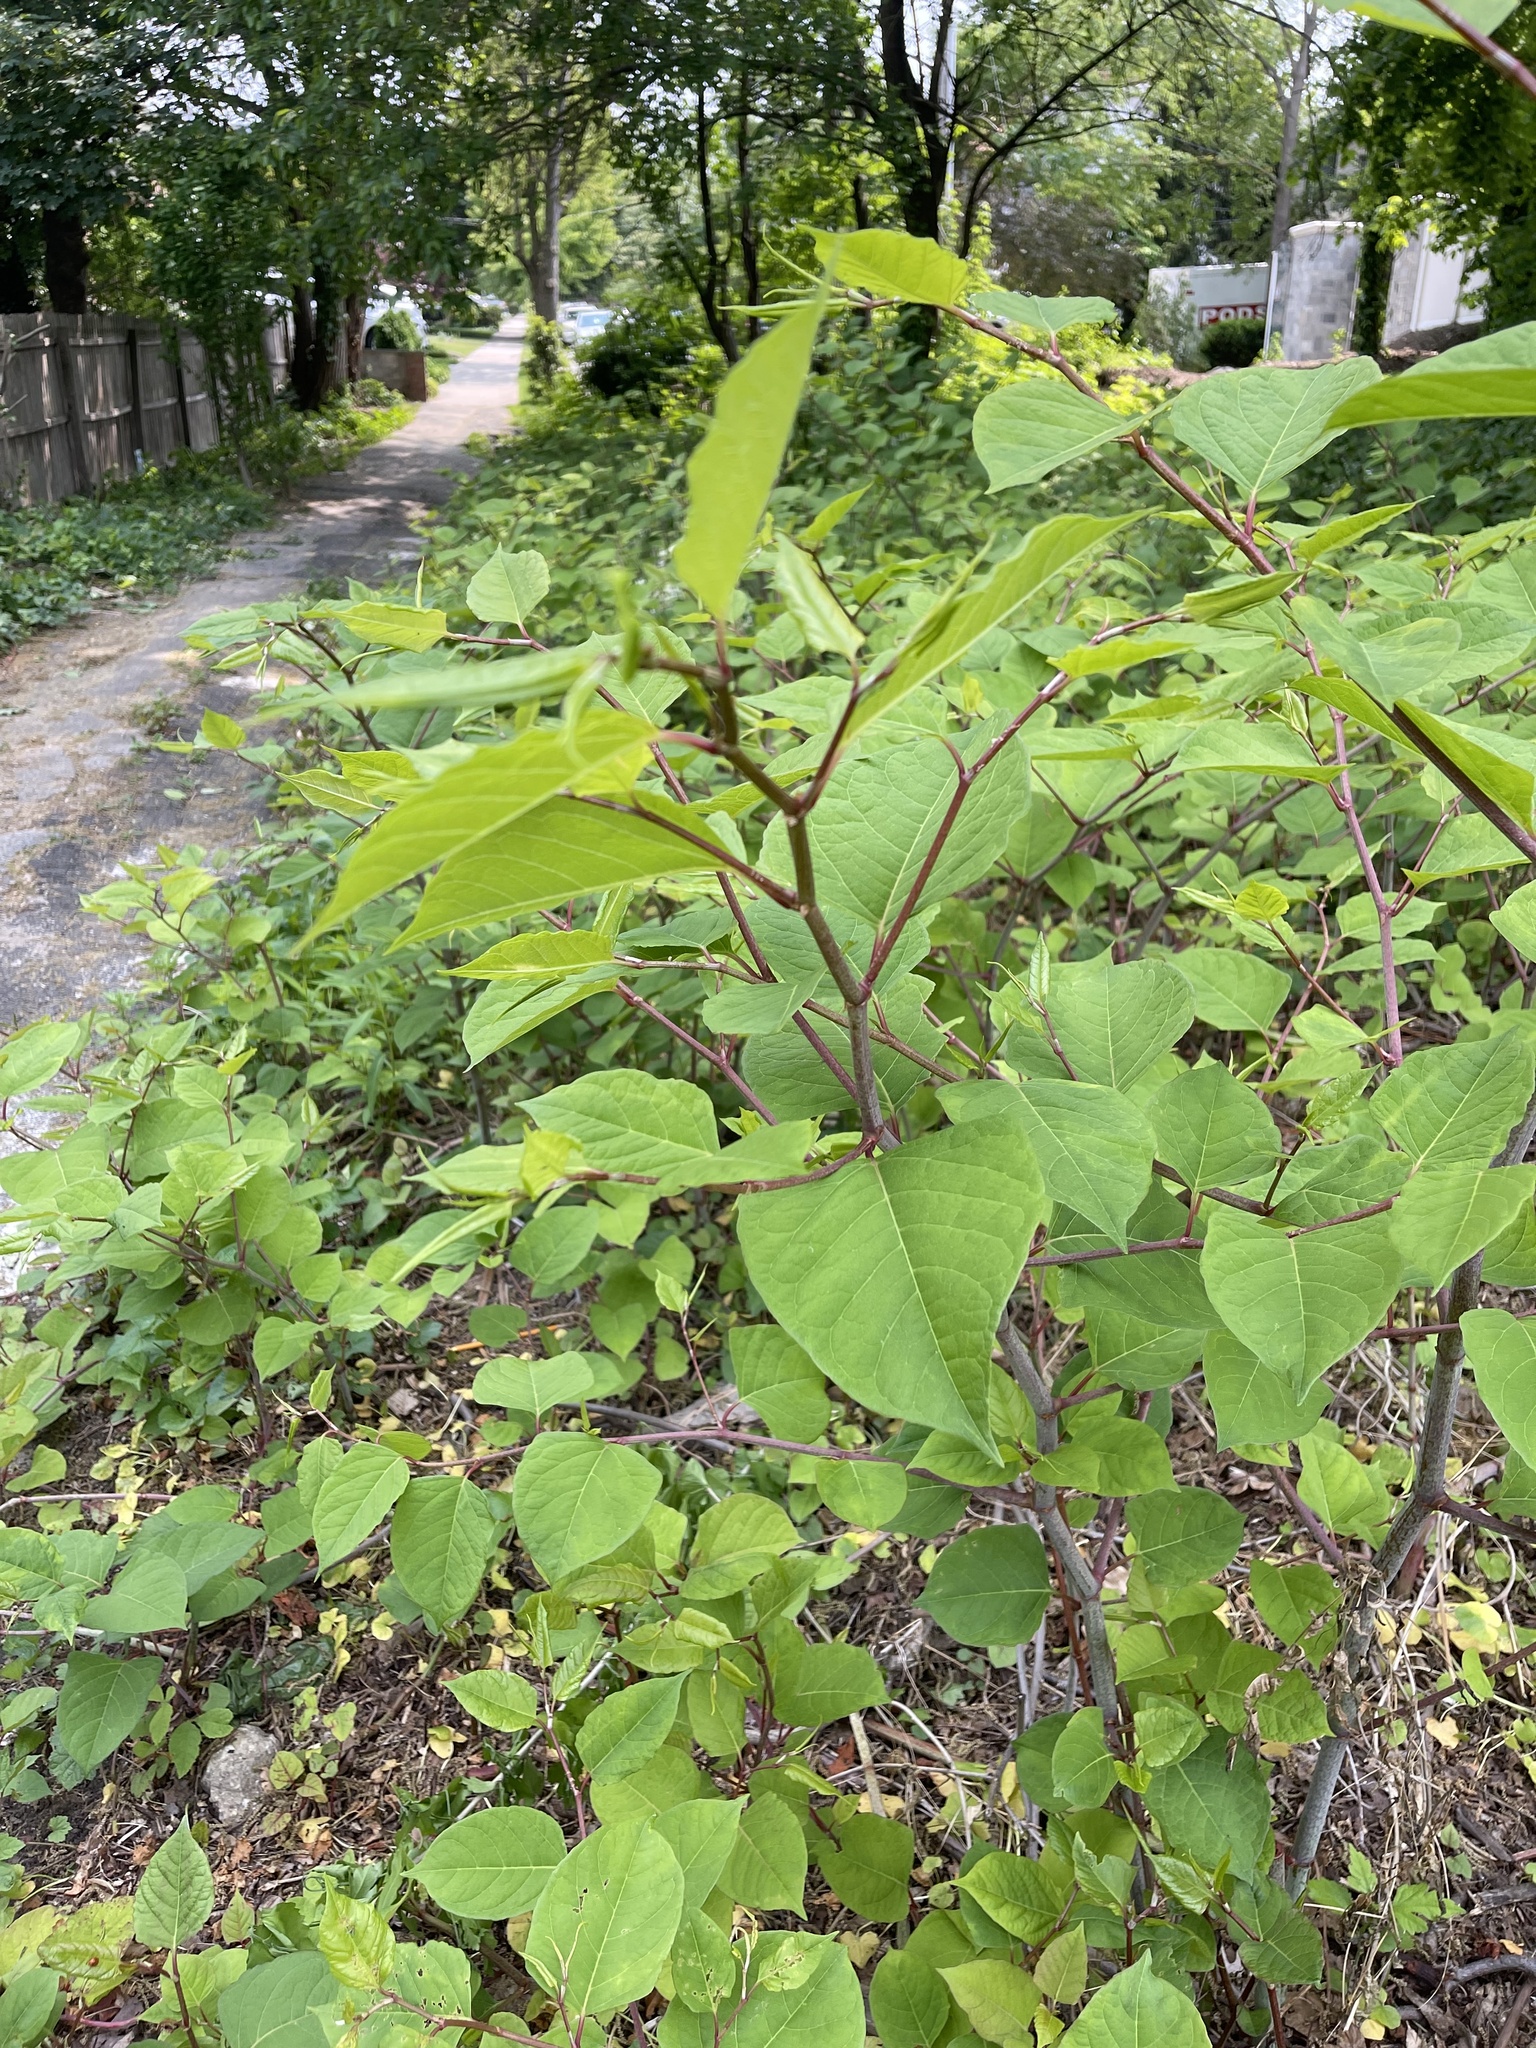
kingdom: Plantae
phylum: Tracheophyta
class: Magnoliopsida
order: Caryophyllales
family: Polygonaceae
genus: Reynoutria
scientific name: Reynoutria japonica
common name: Japanese knotweed
